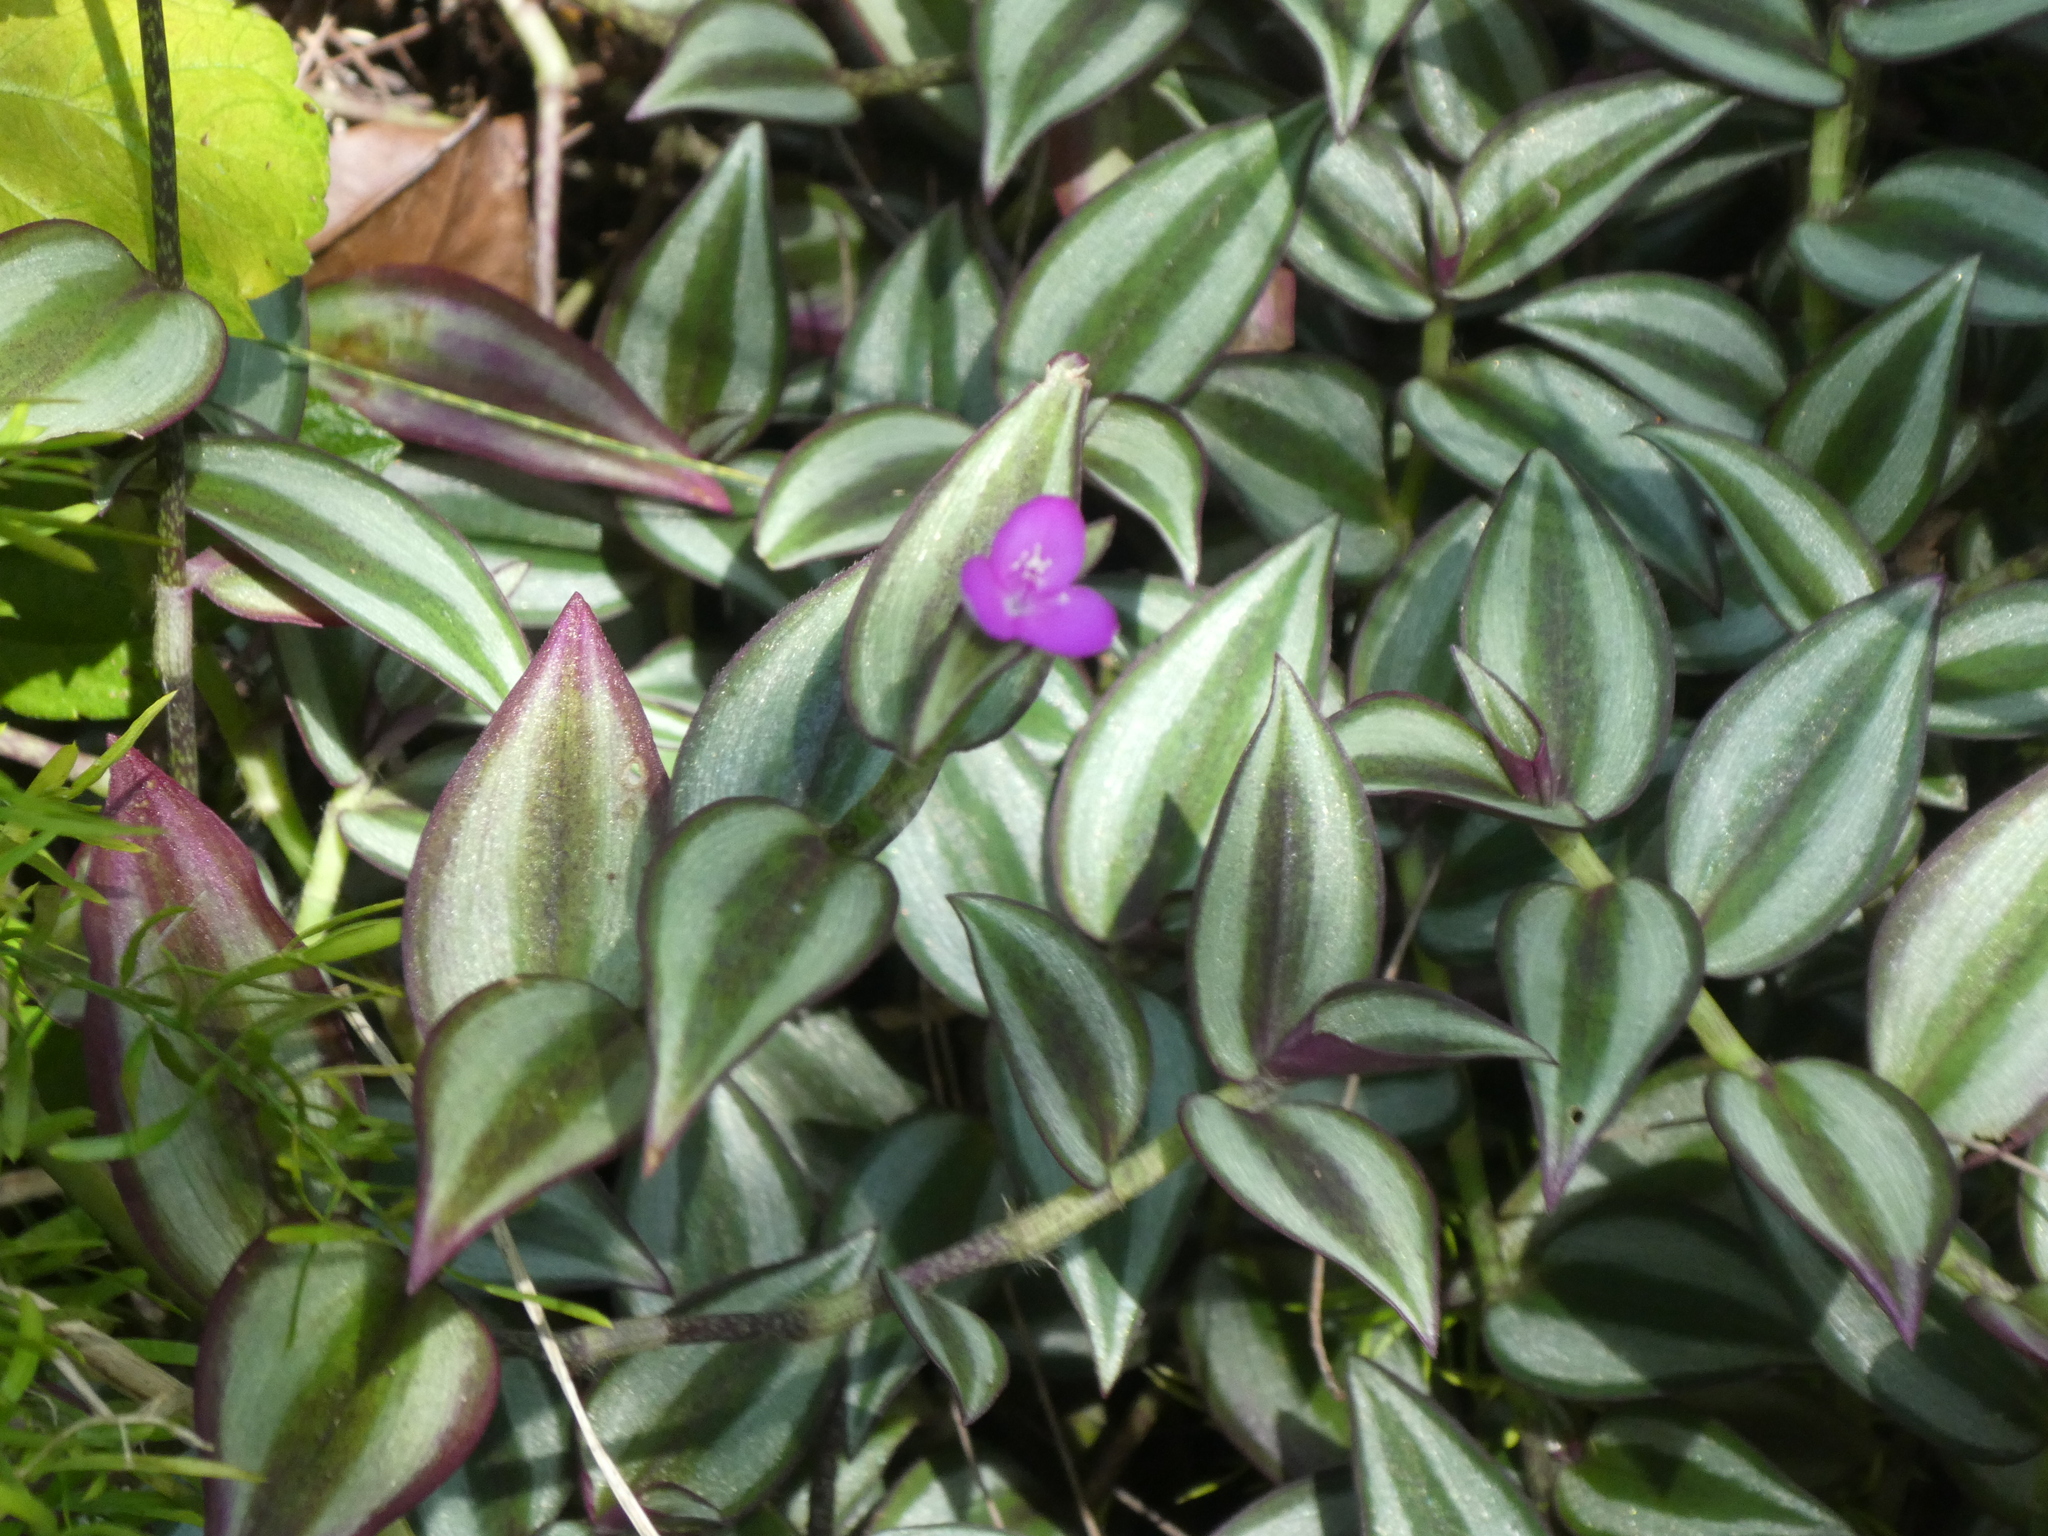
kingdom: Plantae
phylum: Tracheophyta
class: Liliopsida
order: Commelinales
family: Commelinaceae
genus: Tradescantia
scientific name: Tradescantia zebrina
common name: Inchplant
